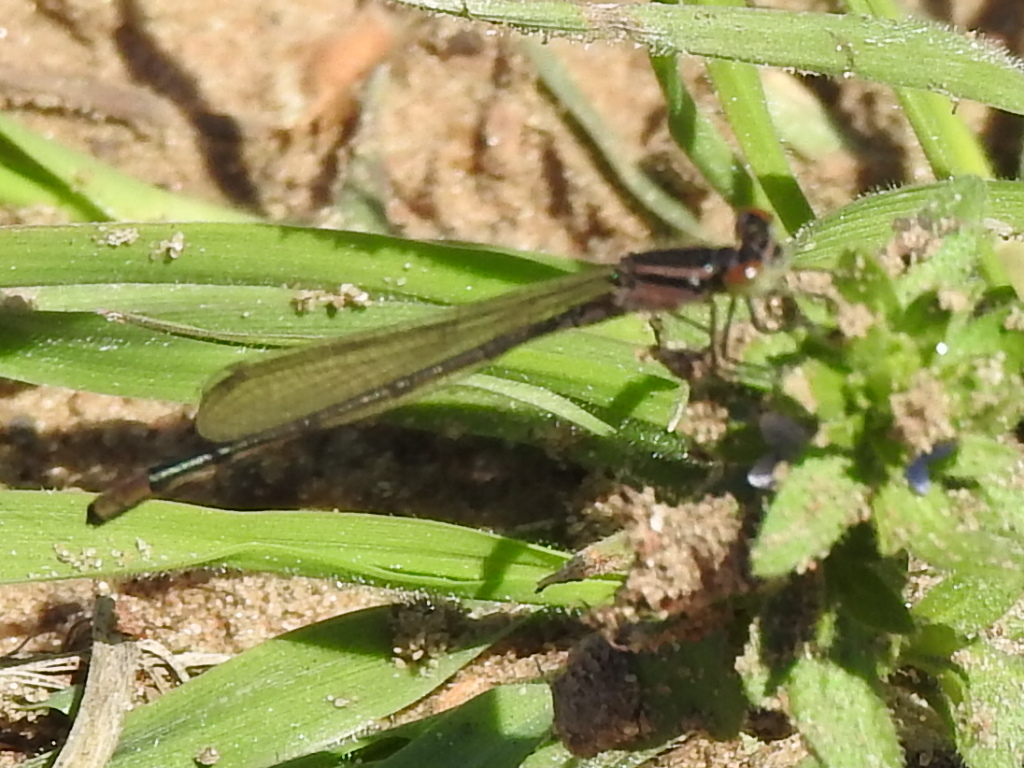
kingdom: Animalia
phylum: Arthropoda
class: Insecta
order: Odonata
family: Coenagrionidae
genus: Enallagma
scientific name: Enallagma geminatum
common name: Skimming bluet
